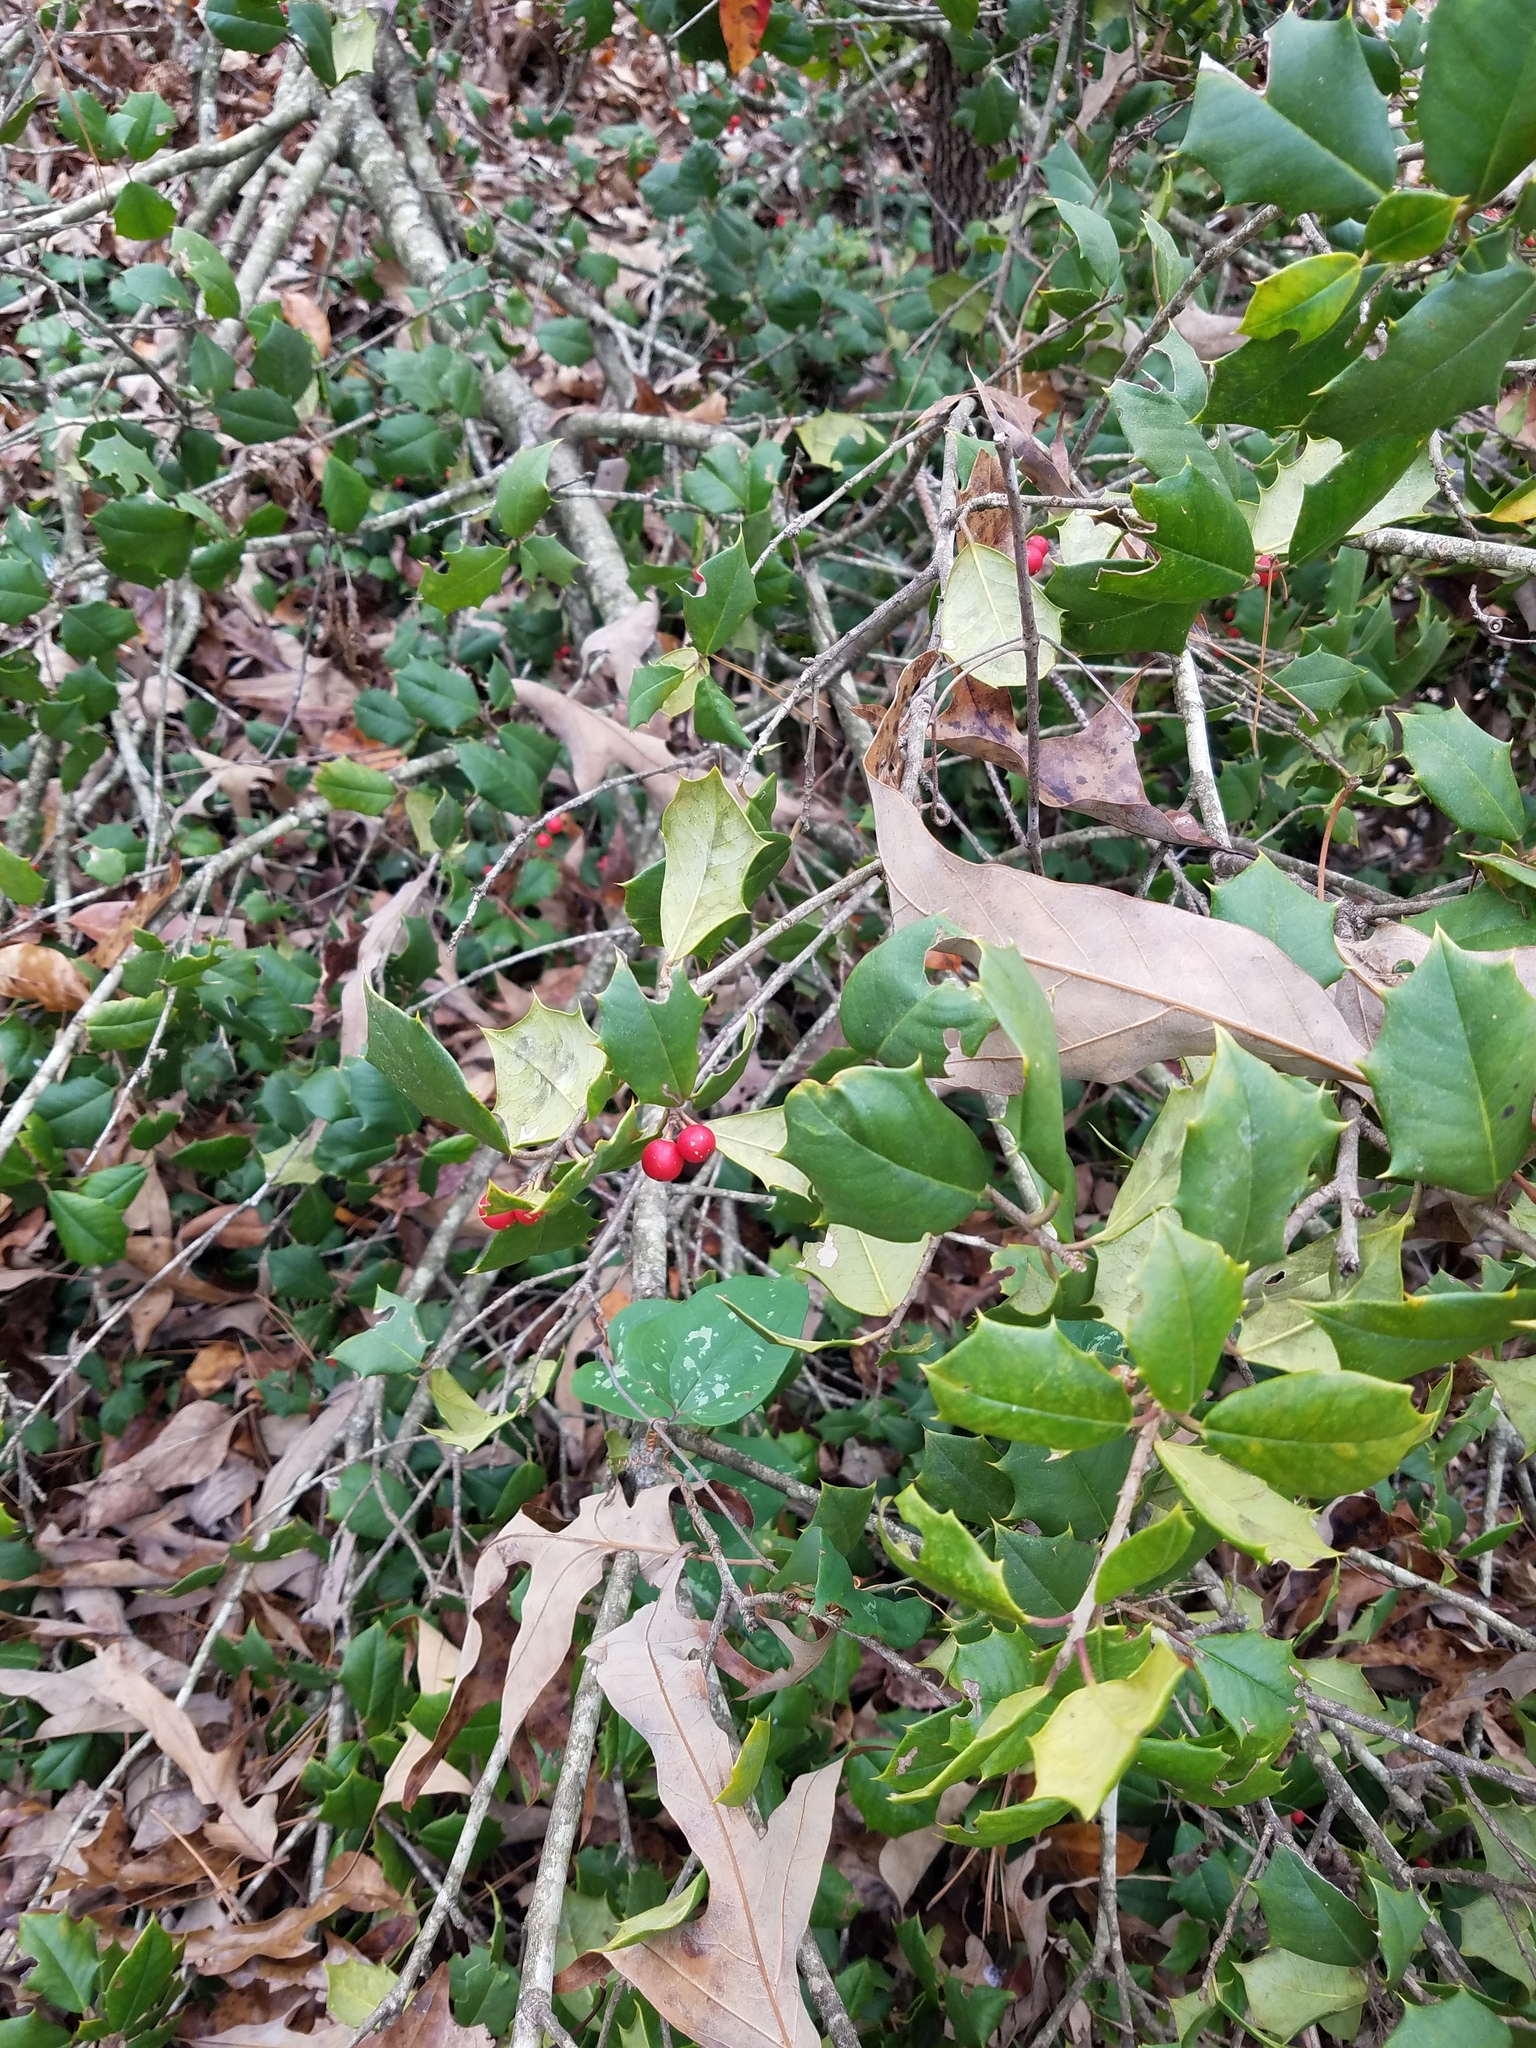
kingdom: Plantae
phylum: Tracheophyta
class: Magnoliopsida
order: Aquifoliales
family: Aquifoliaceae
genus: Ilex
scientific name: Ilex opaca
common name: American holly
